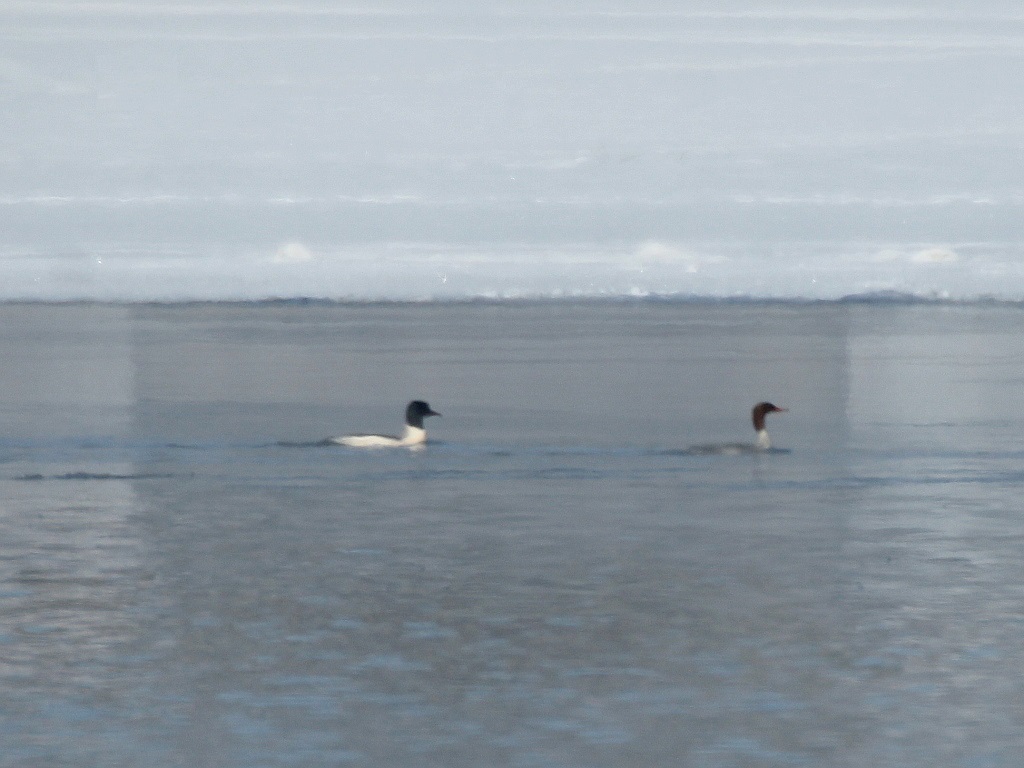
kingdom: Animalia
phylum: Chordata
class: Aves
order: Anseriformes
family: Anatidae
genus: Mergus
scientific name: Mergus merganser
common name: Common merganser
